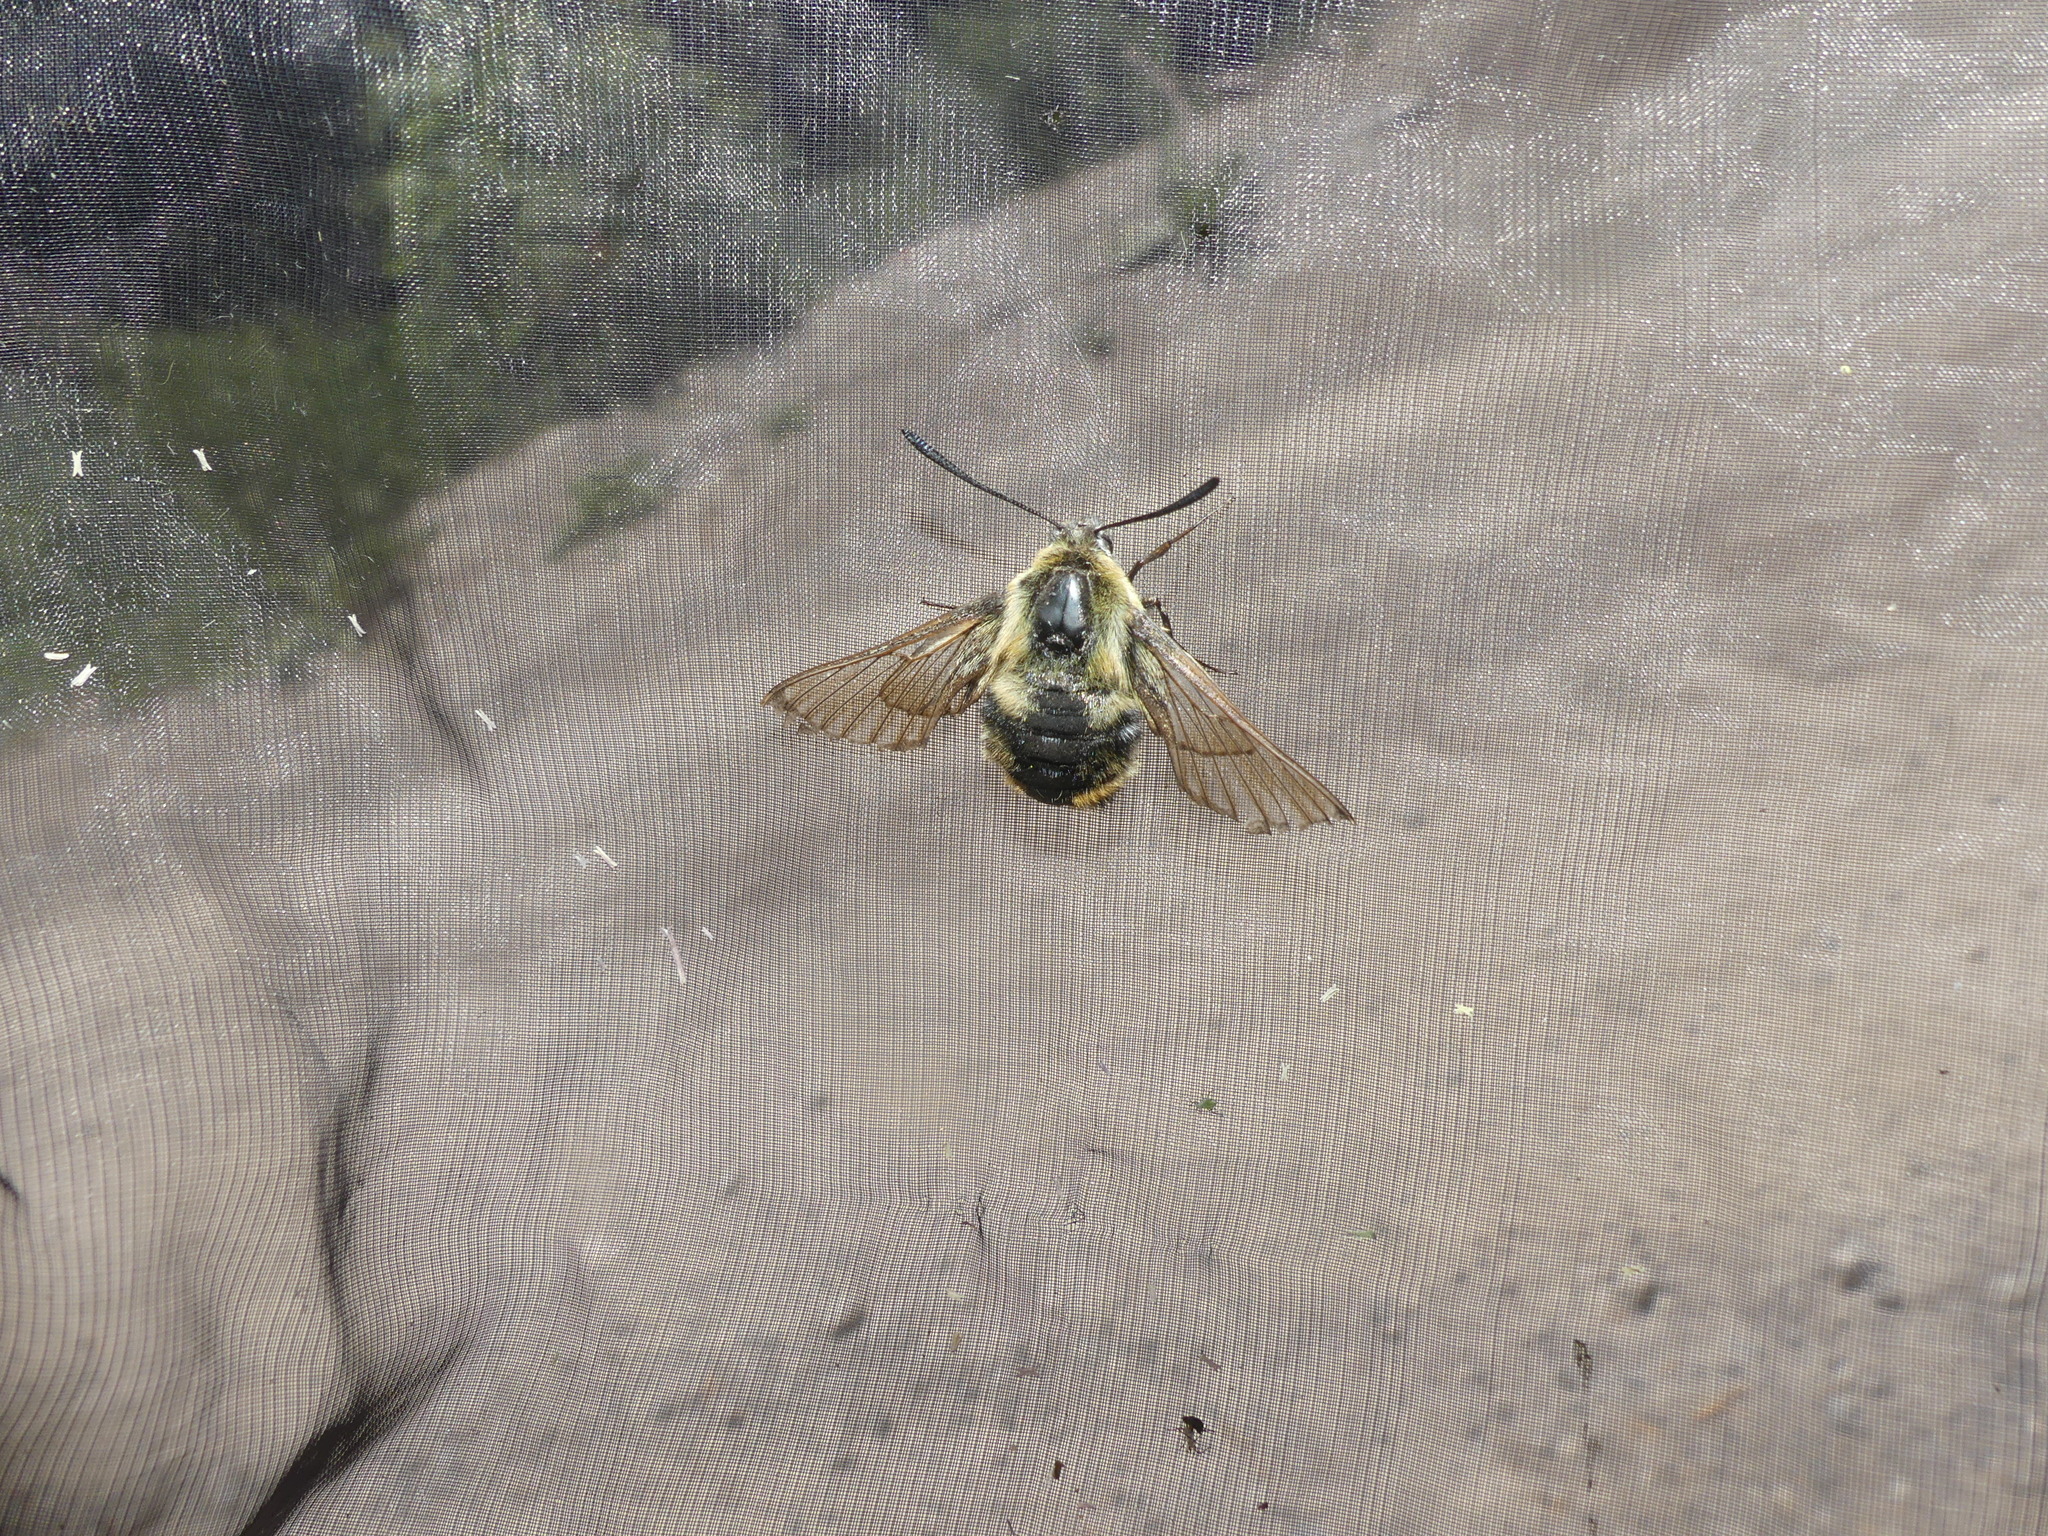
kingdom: Animalia
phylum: Arthropoda
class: Insecta
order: Lepidoptera
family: Sphingidae
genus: Hemaris
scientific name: Hemaris tityus
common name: Narrow-bordered bee hawk-moth
